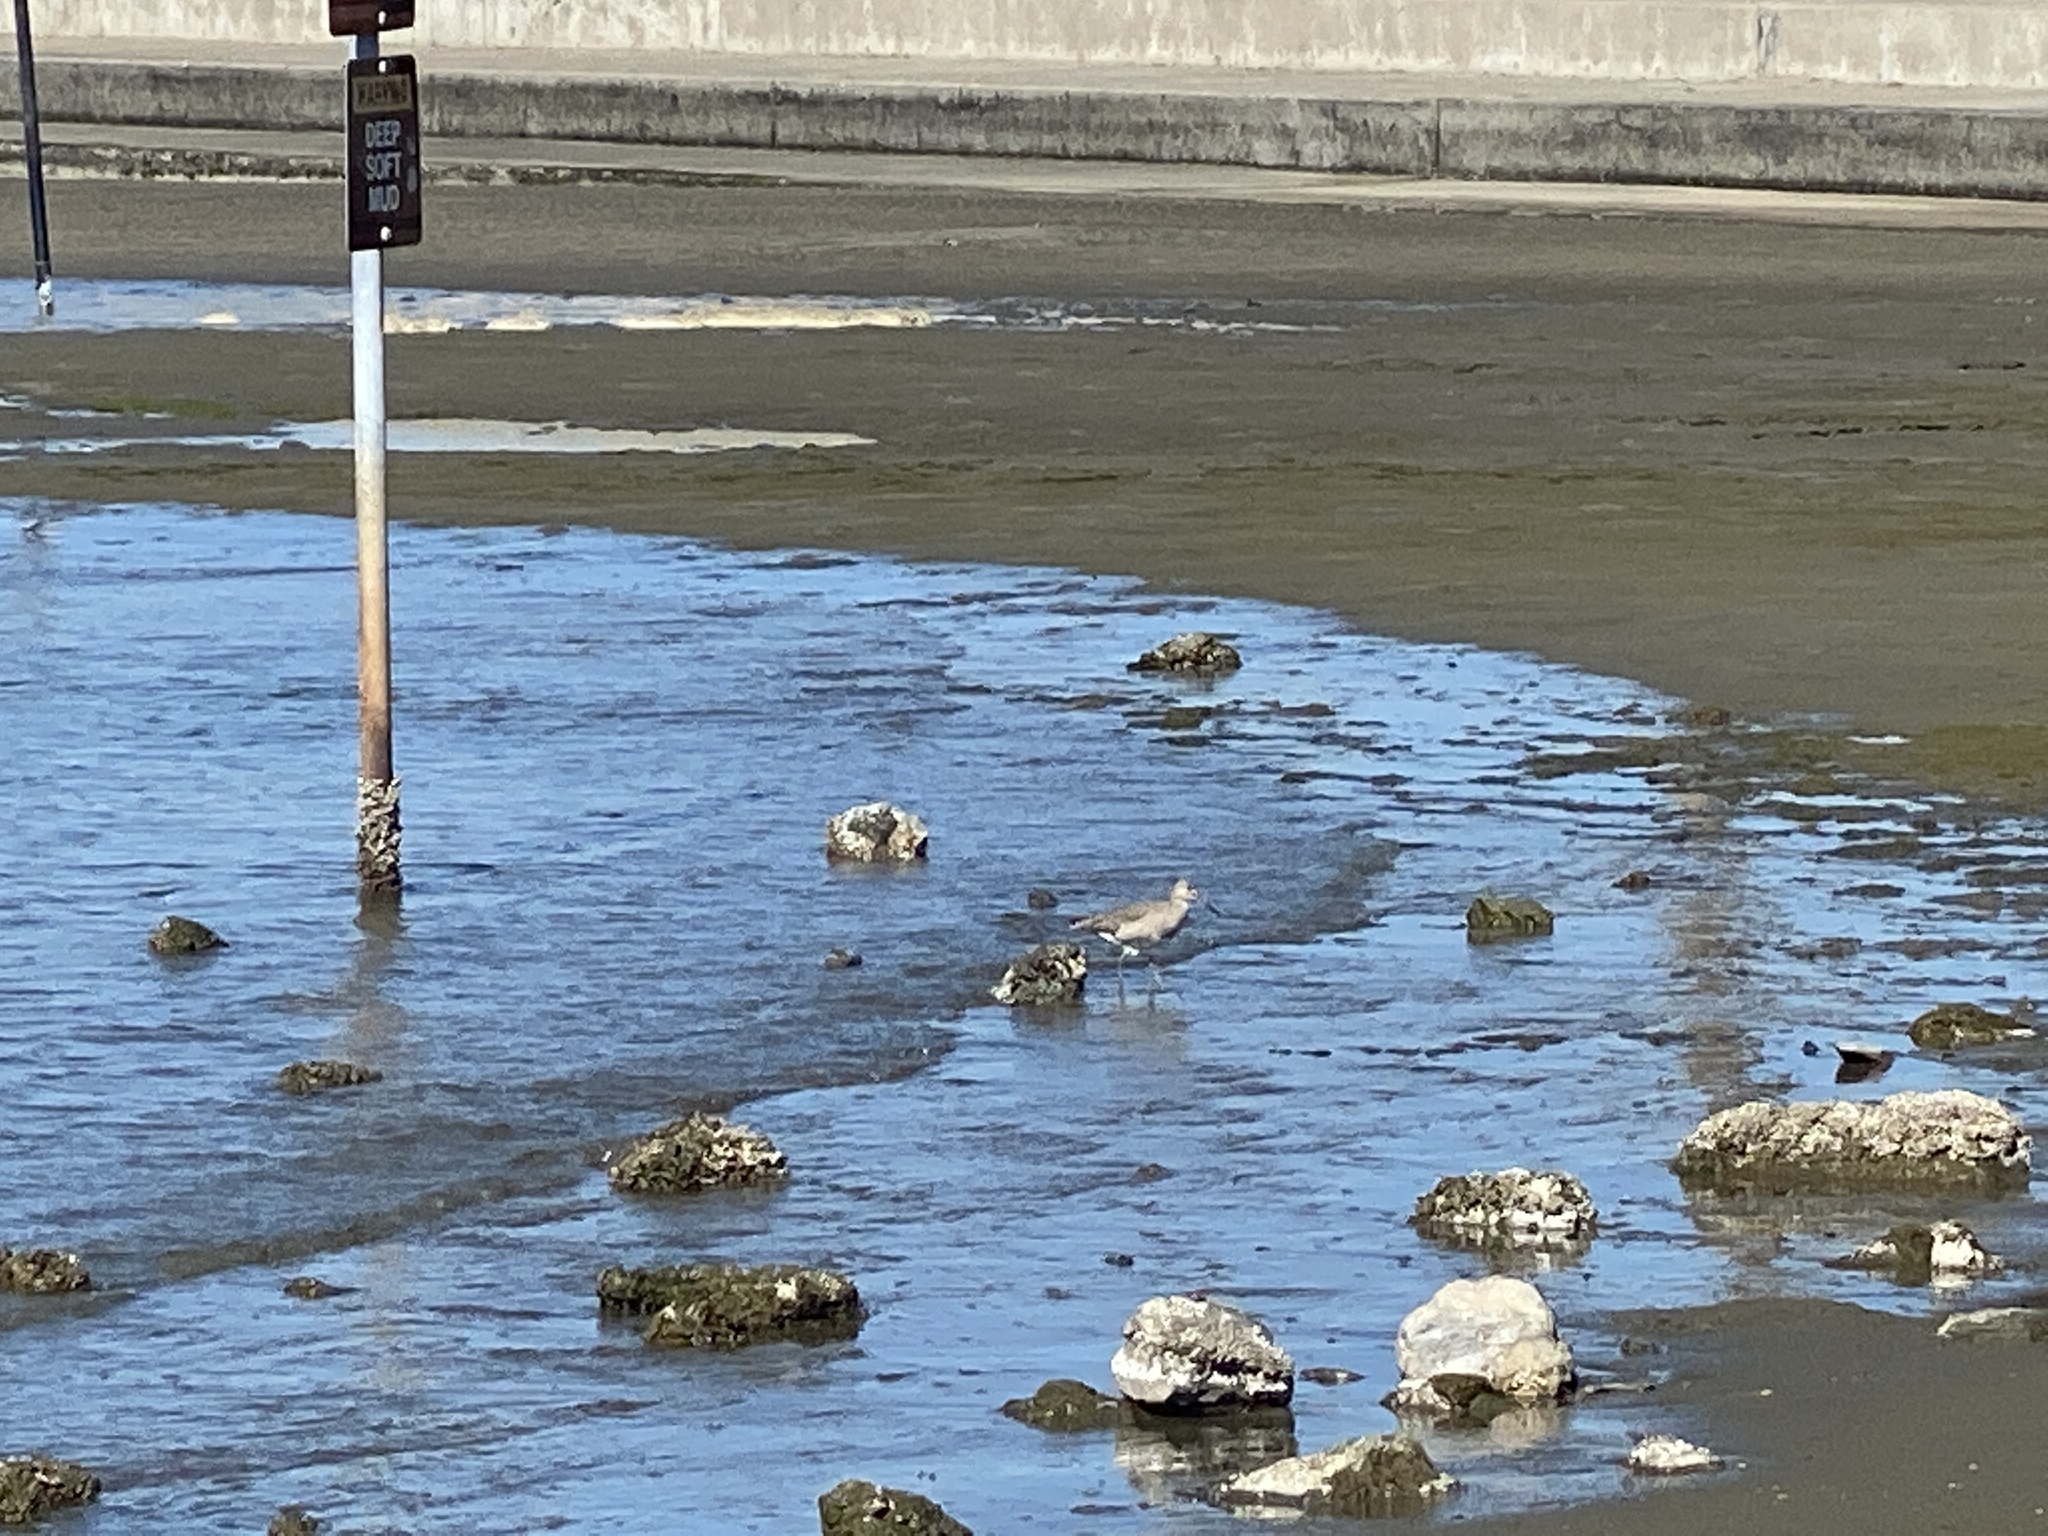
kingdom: Animalia
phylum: Chordata
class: Aves
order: Charadriiformes
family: Scolopacidae
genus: Tringa
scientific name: Tringa semipalmata
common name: Willet
